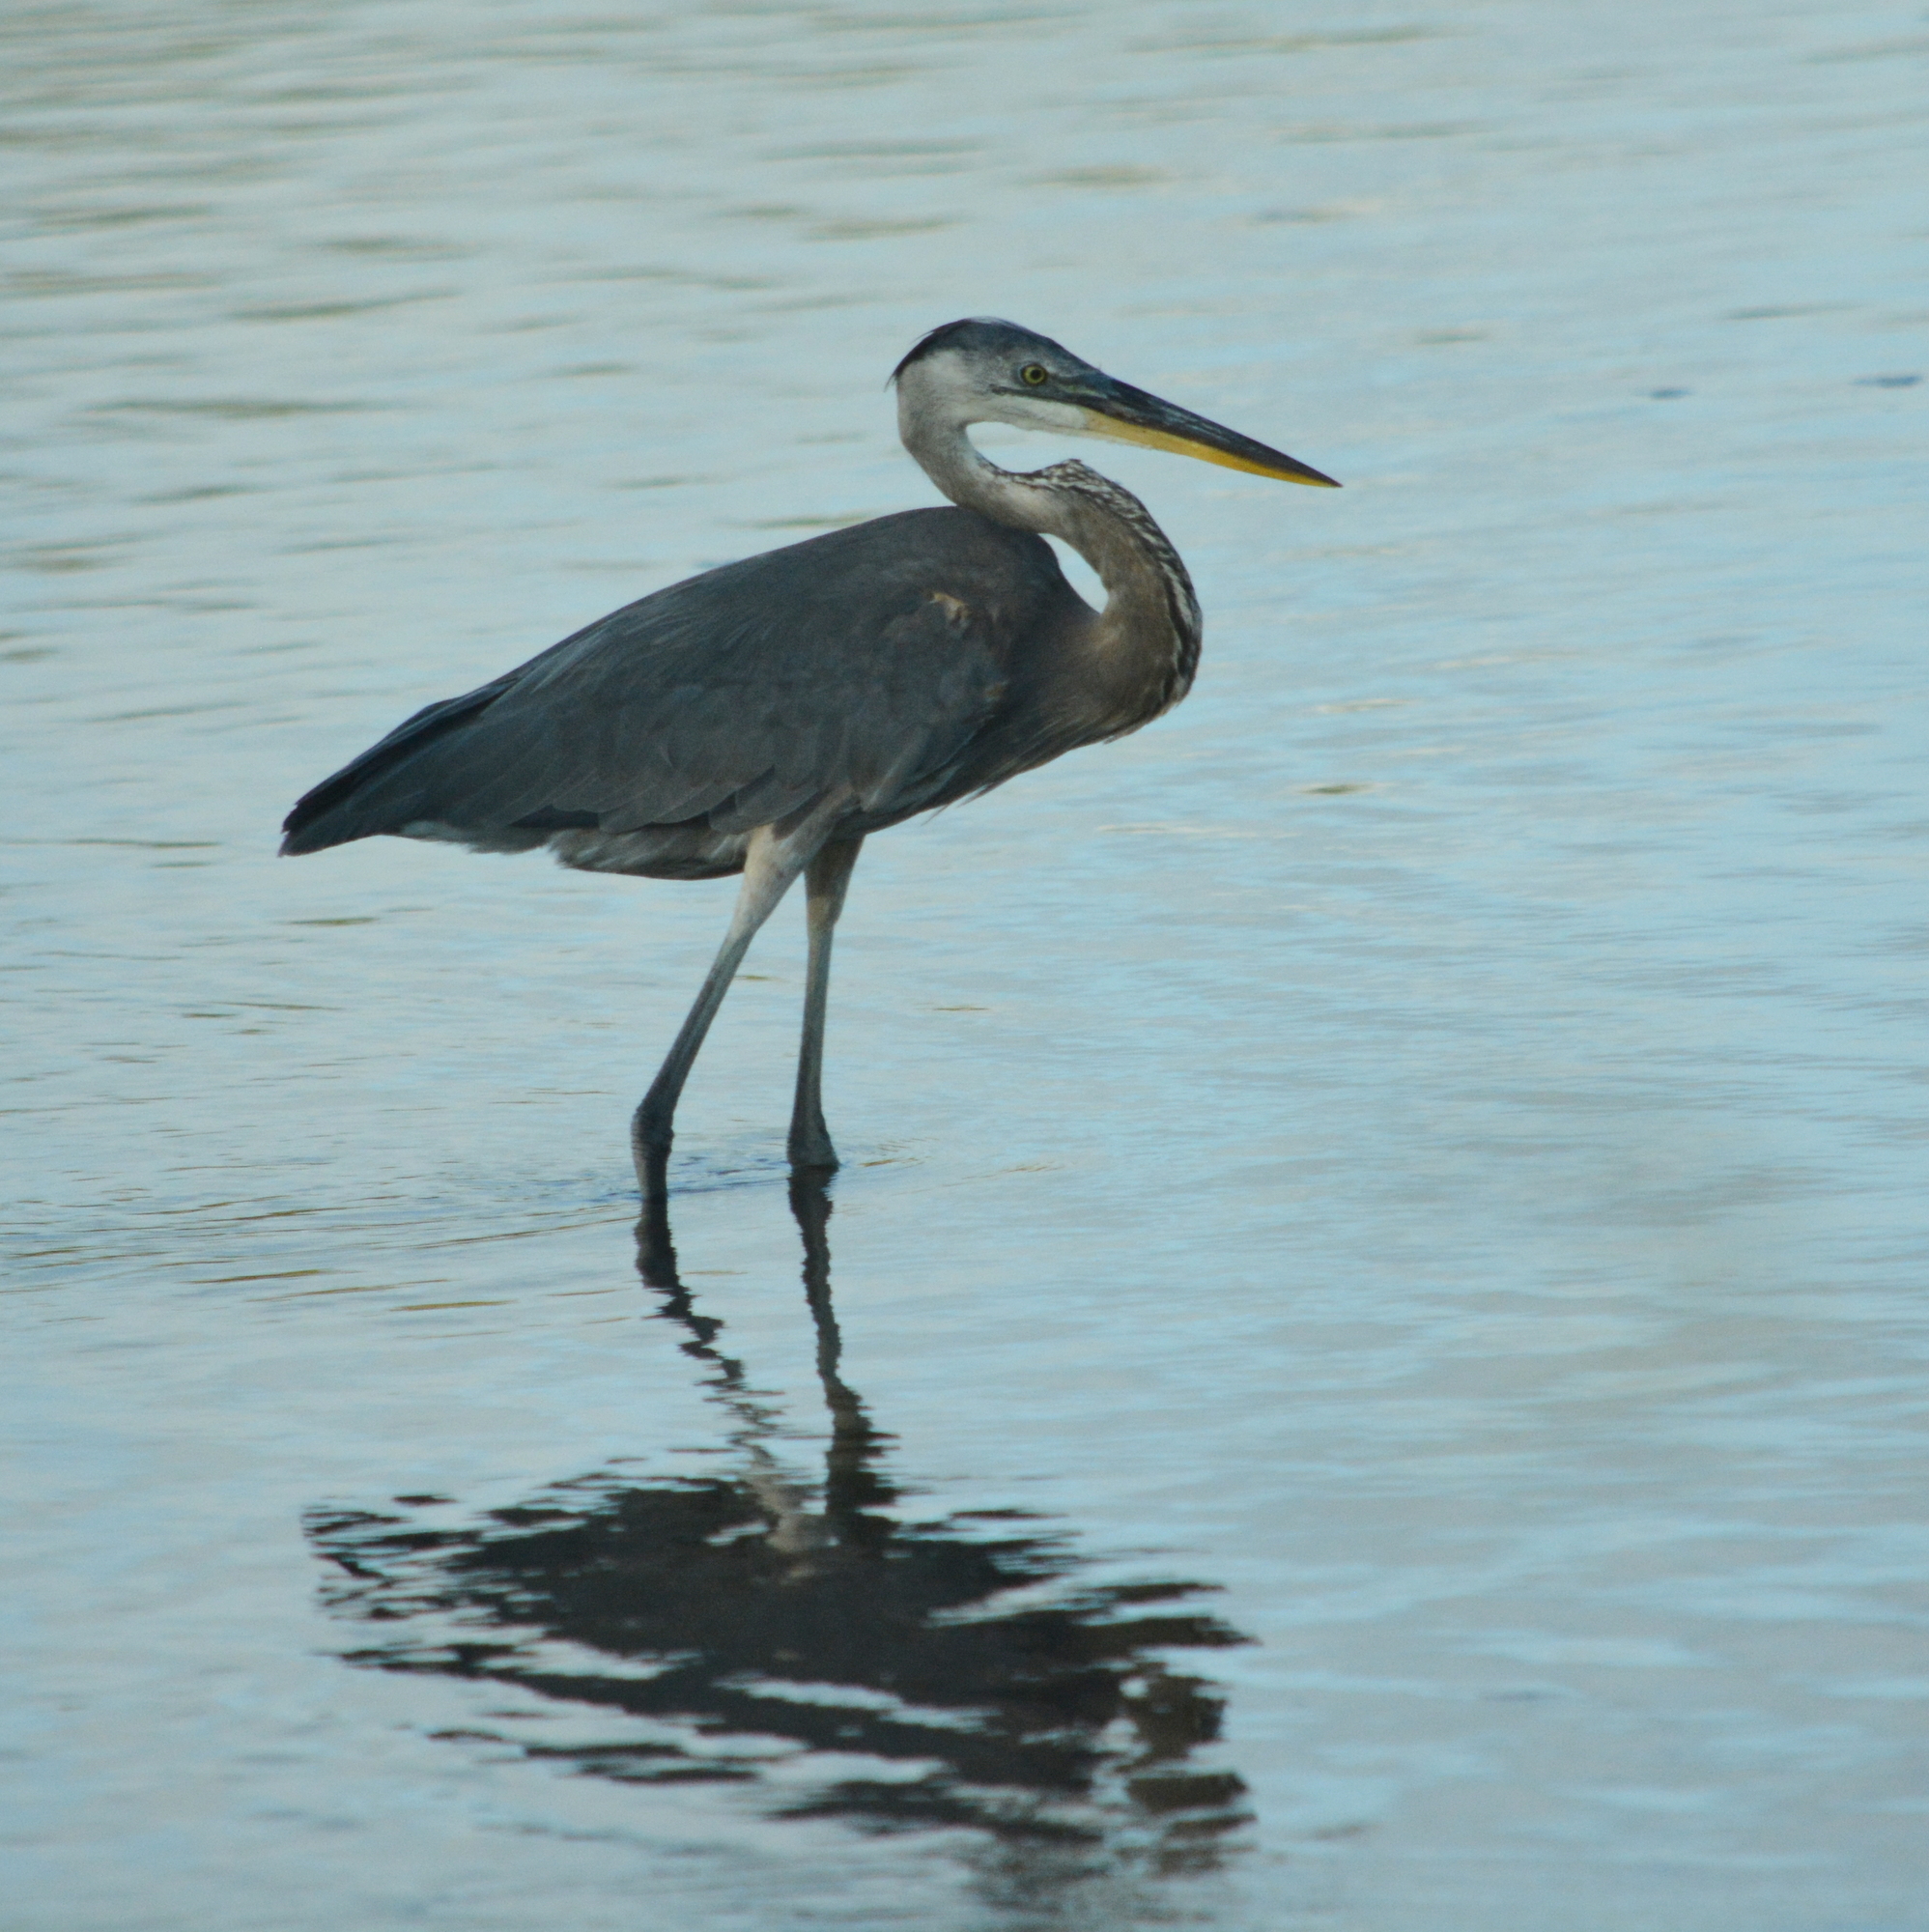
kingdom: Animalia
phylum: Chordata
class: Aves
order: Pelecaniformes
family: Ardeidae
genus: Ardea
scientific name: Ardea herodias
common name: Great blue heron
